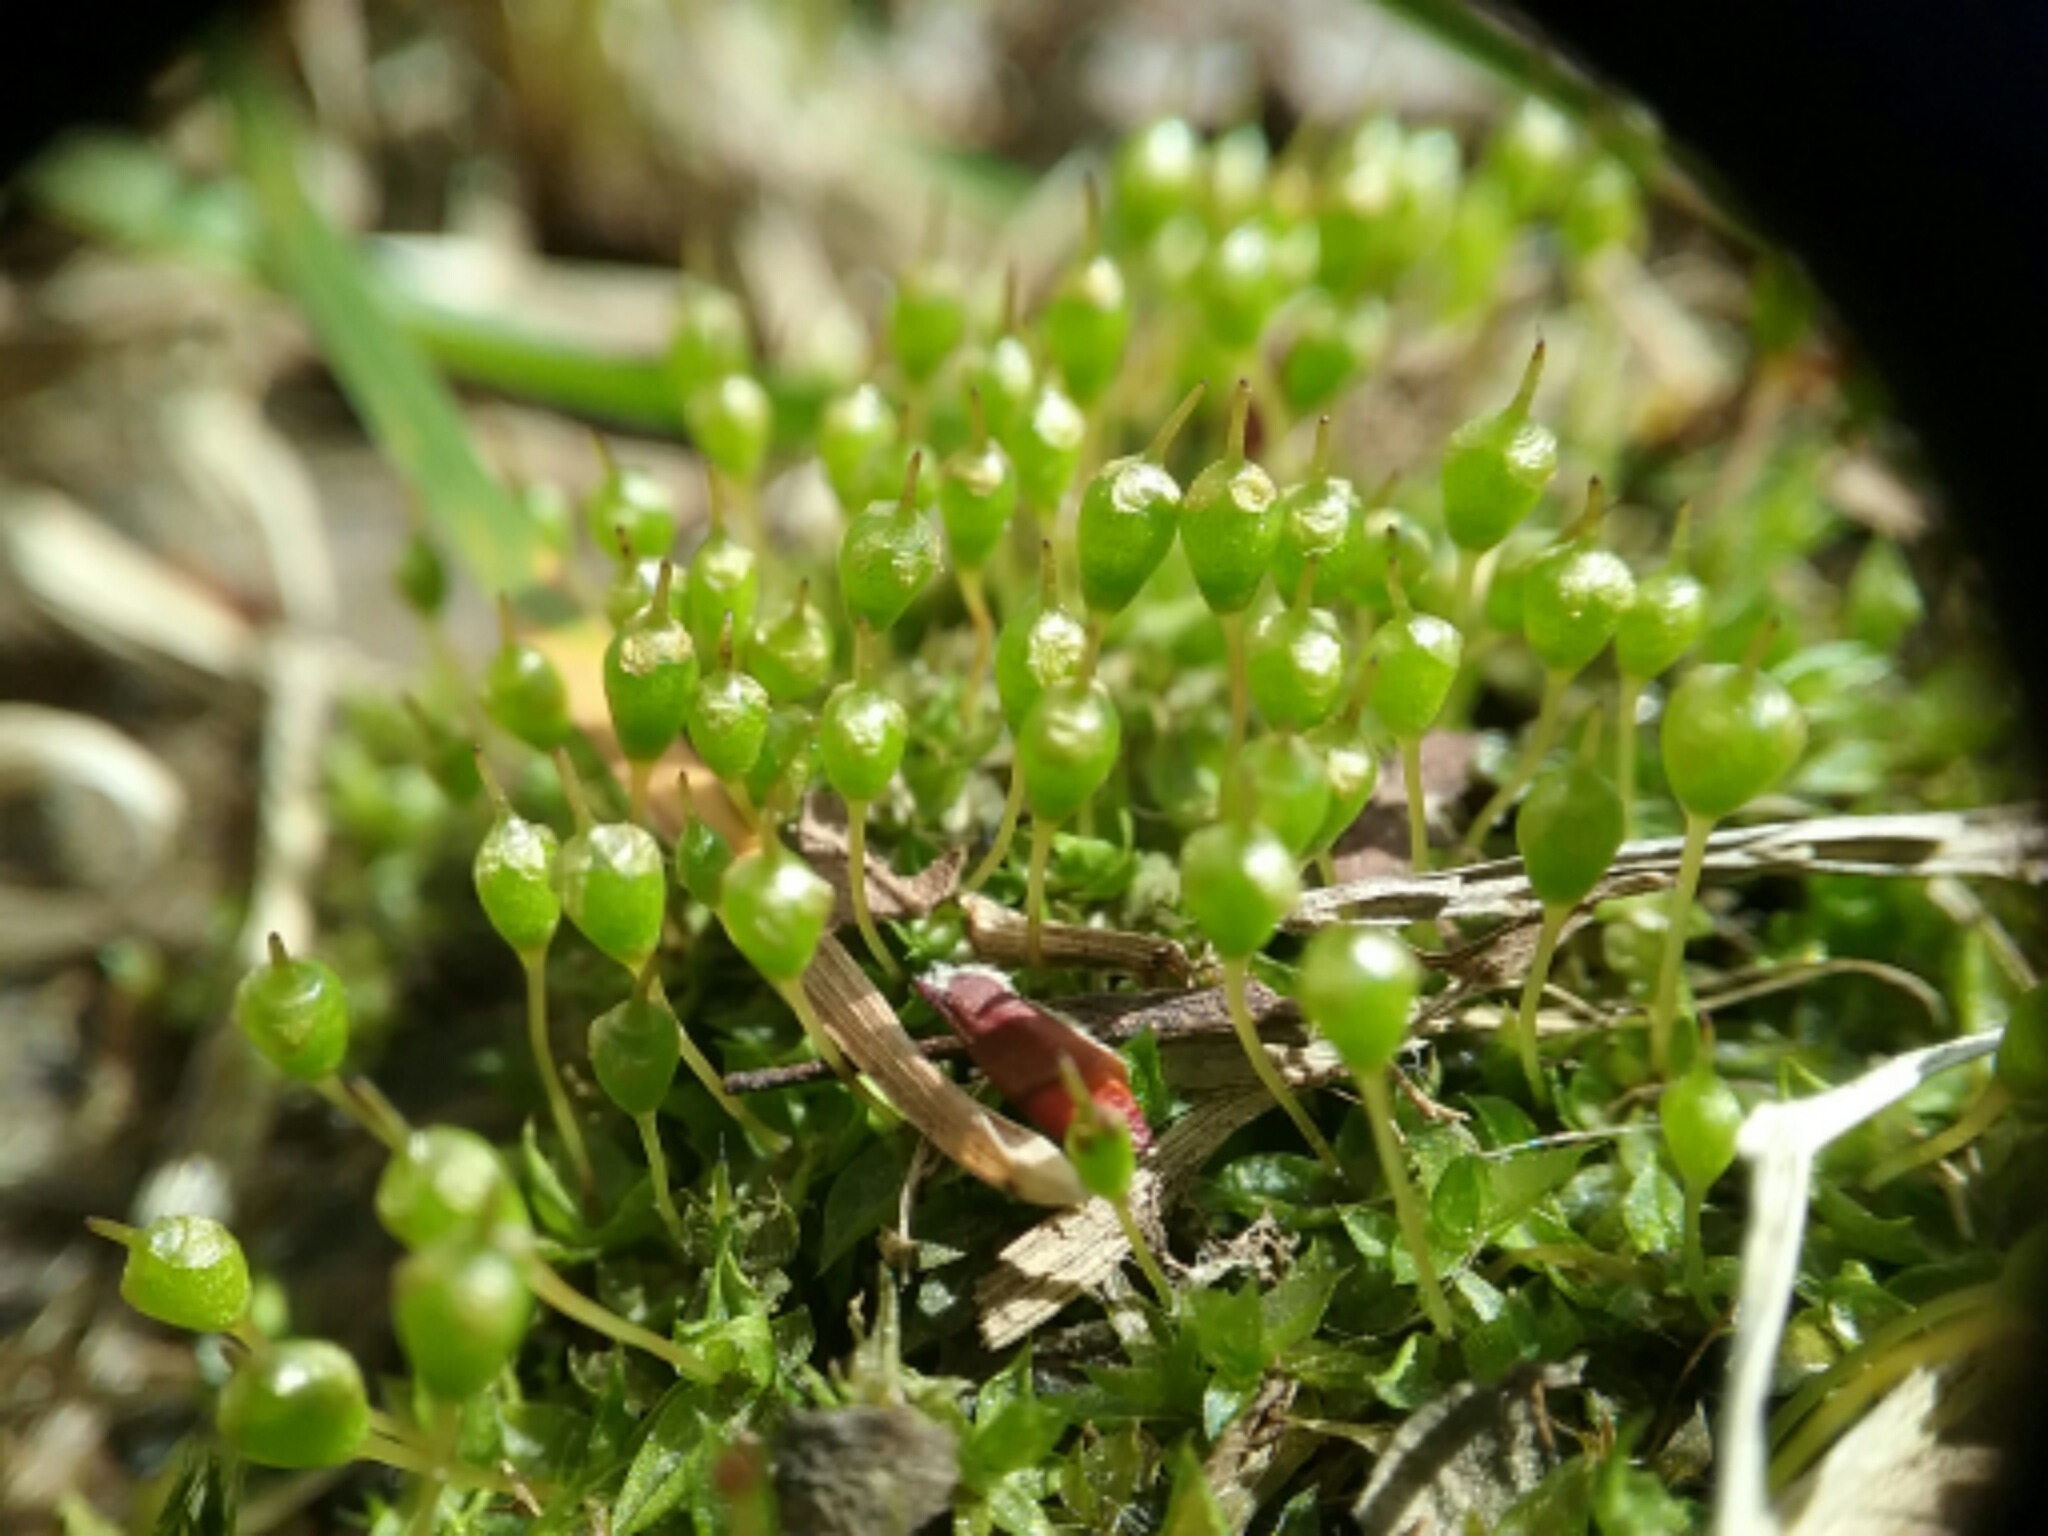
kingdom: Plantae
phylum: Bryophyta
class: Bryopsida
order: Funariales
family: Funariaceae
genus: Physcomitrium
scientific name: Physcomitrium pyriforme
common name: Common bladder-moss
